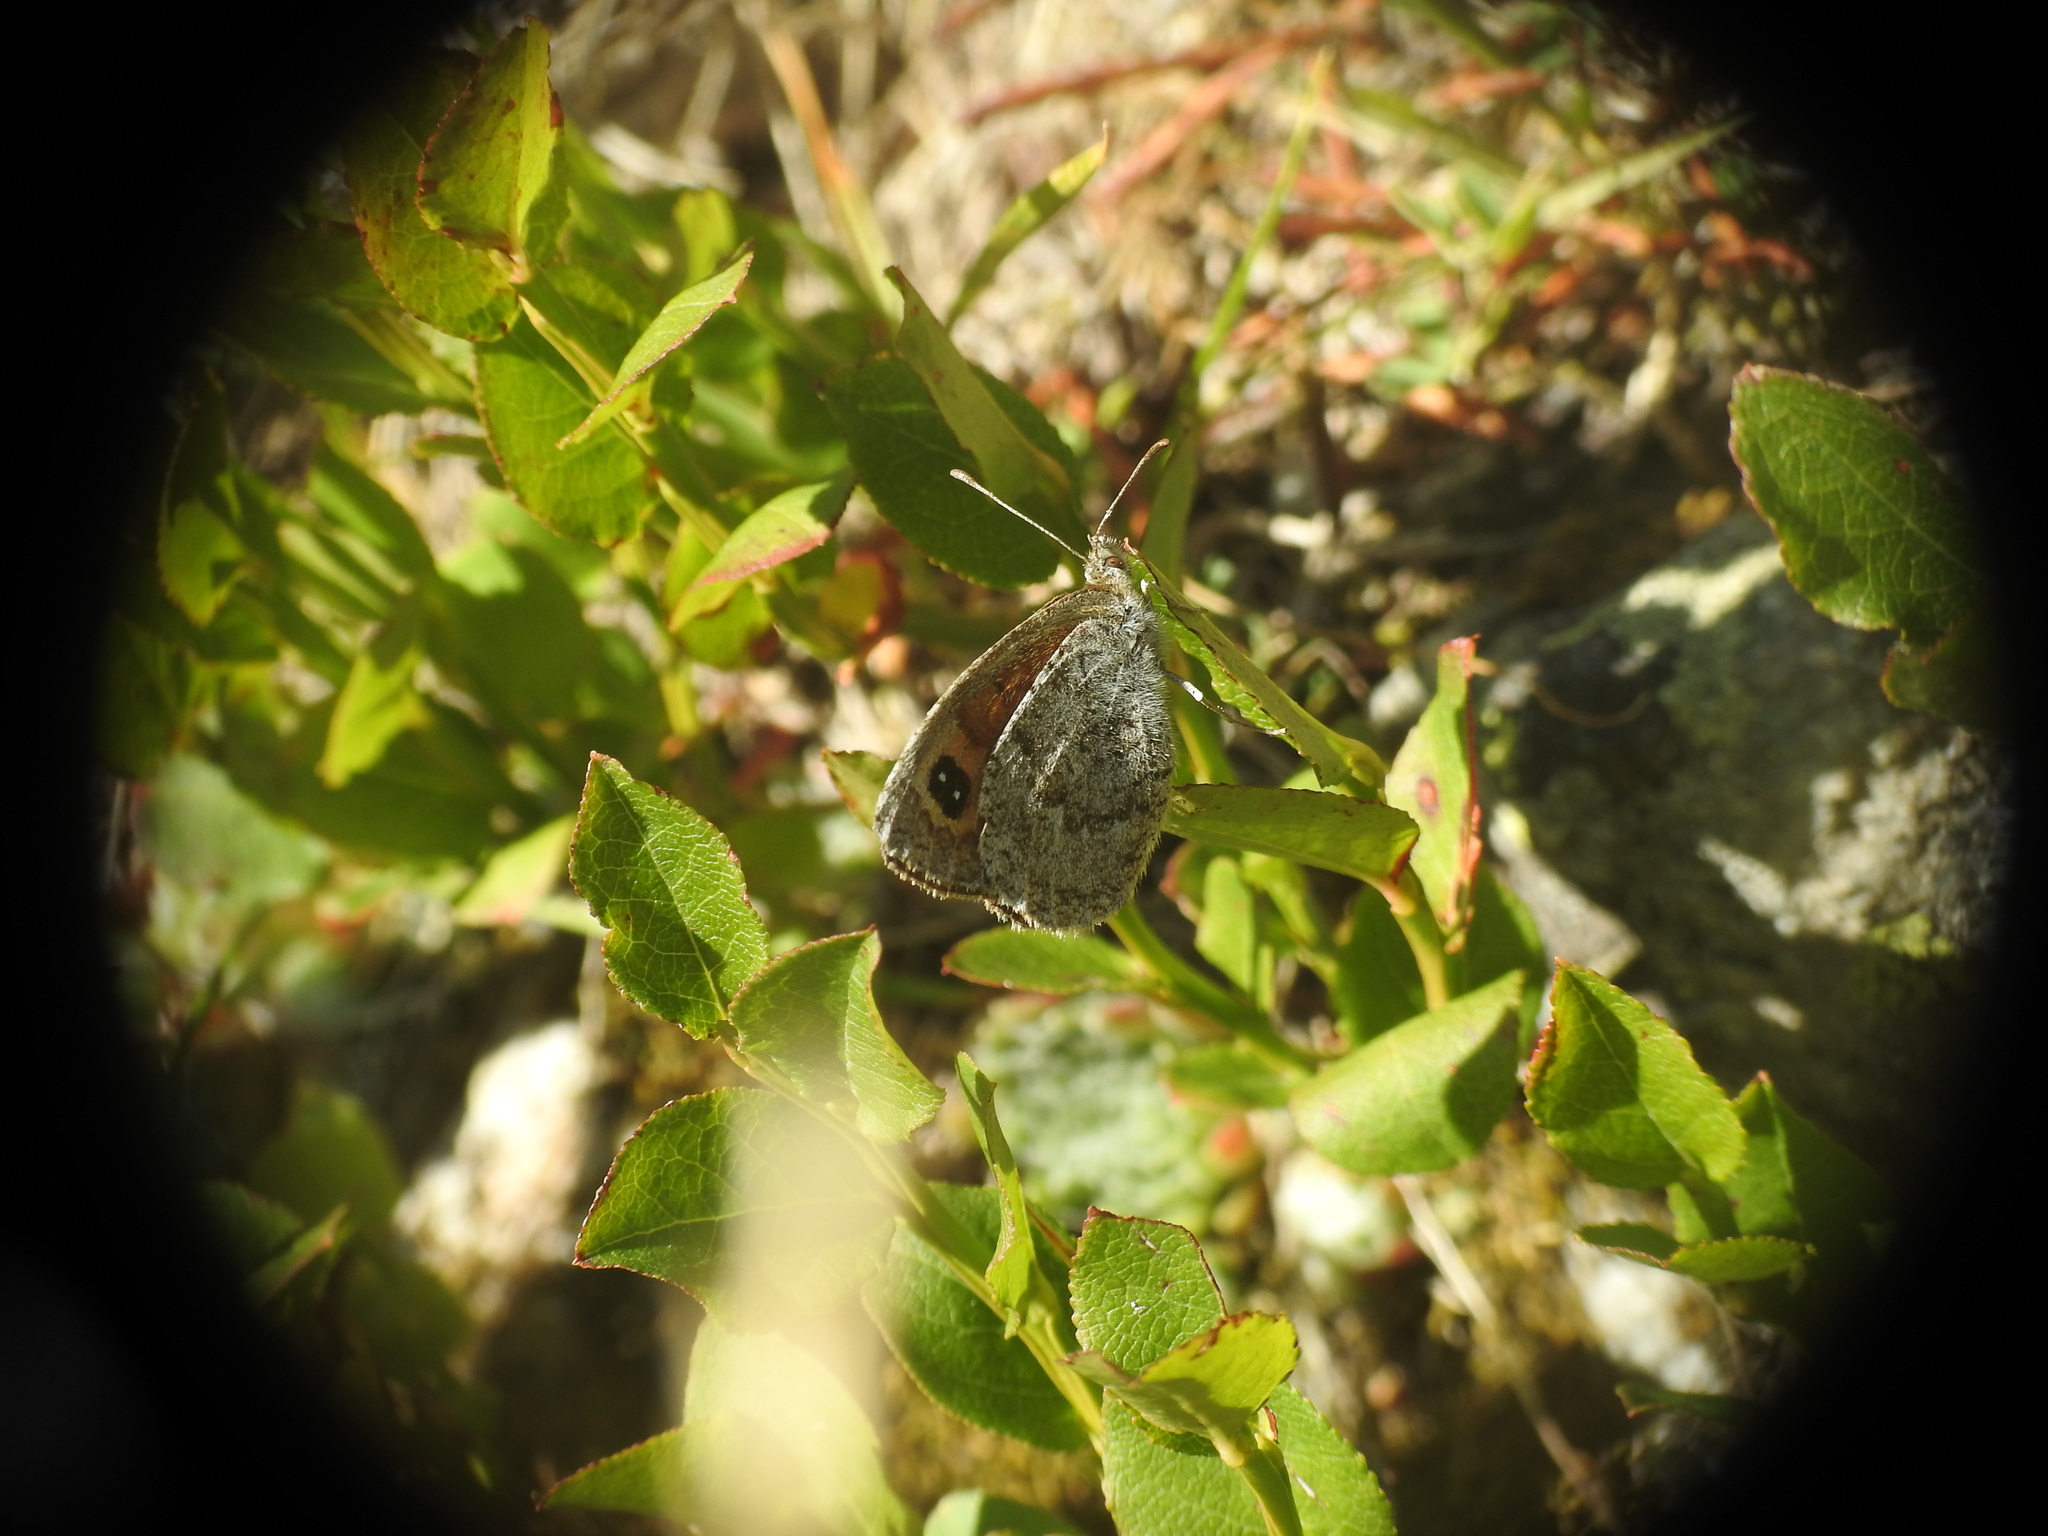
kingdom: Animalia
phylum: Arthropoda
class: Insecta
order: Lepidoptera
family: Nymphalidae
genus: Erebia
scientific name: Erebia cassioides
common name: Common brassy ringlet
